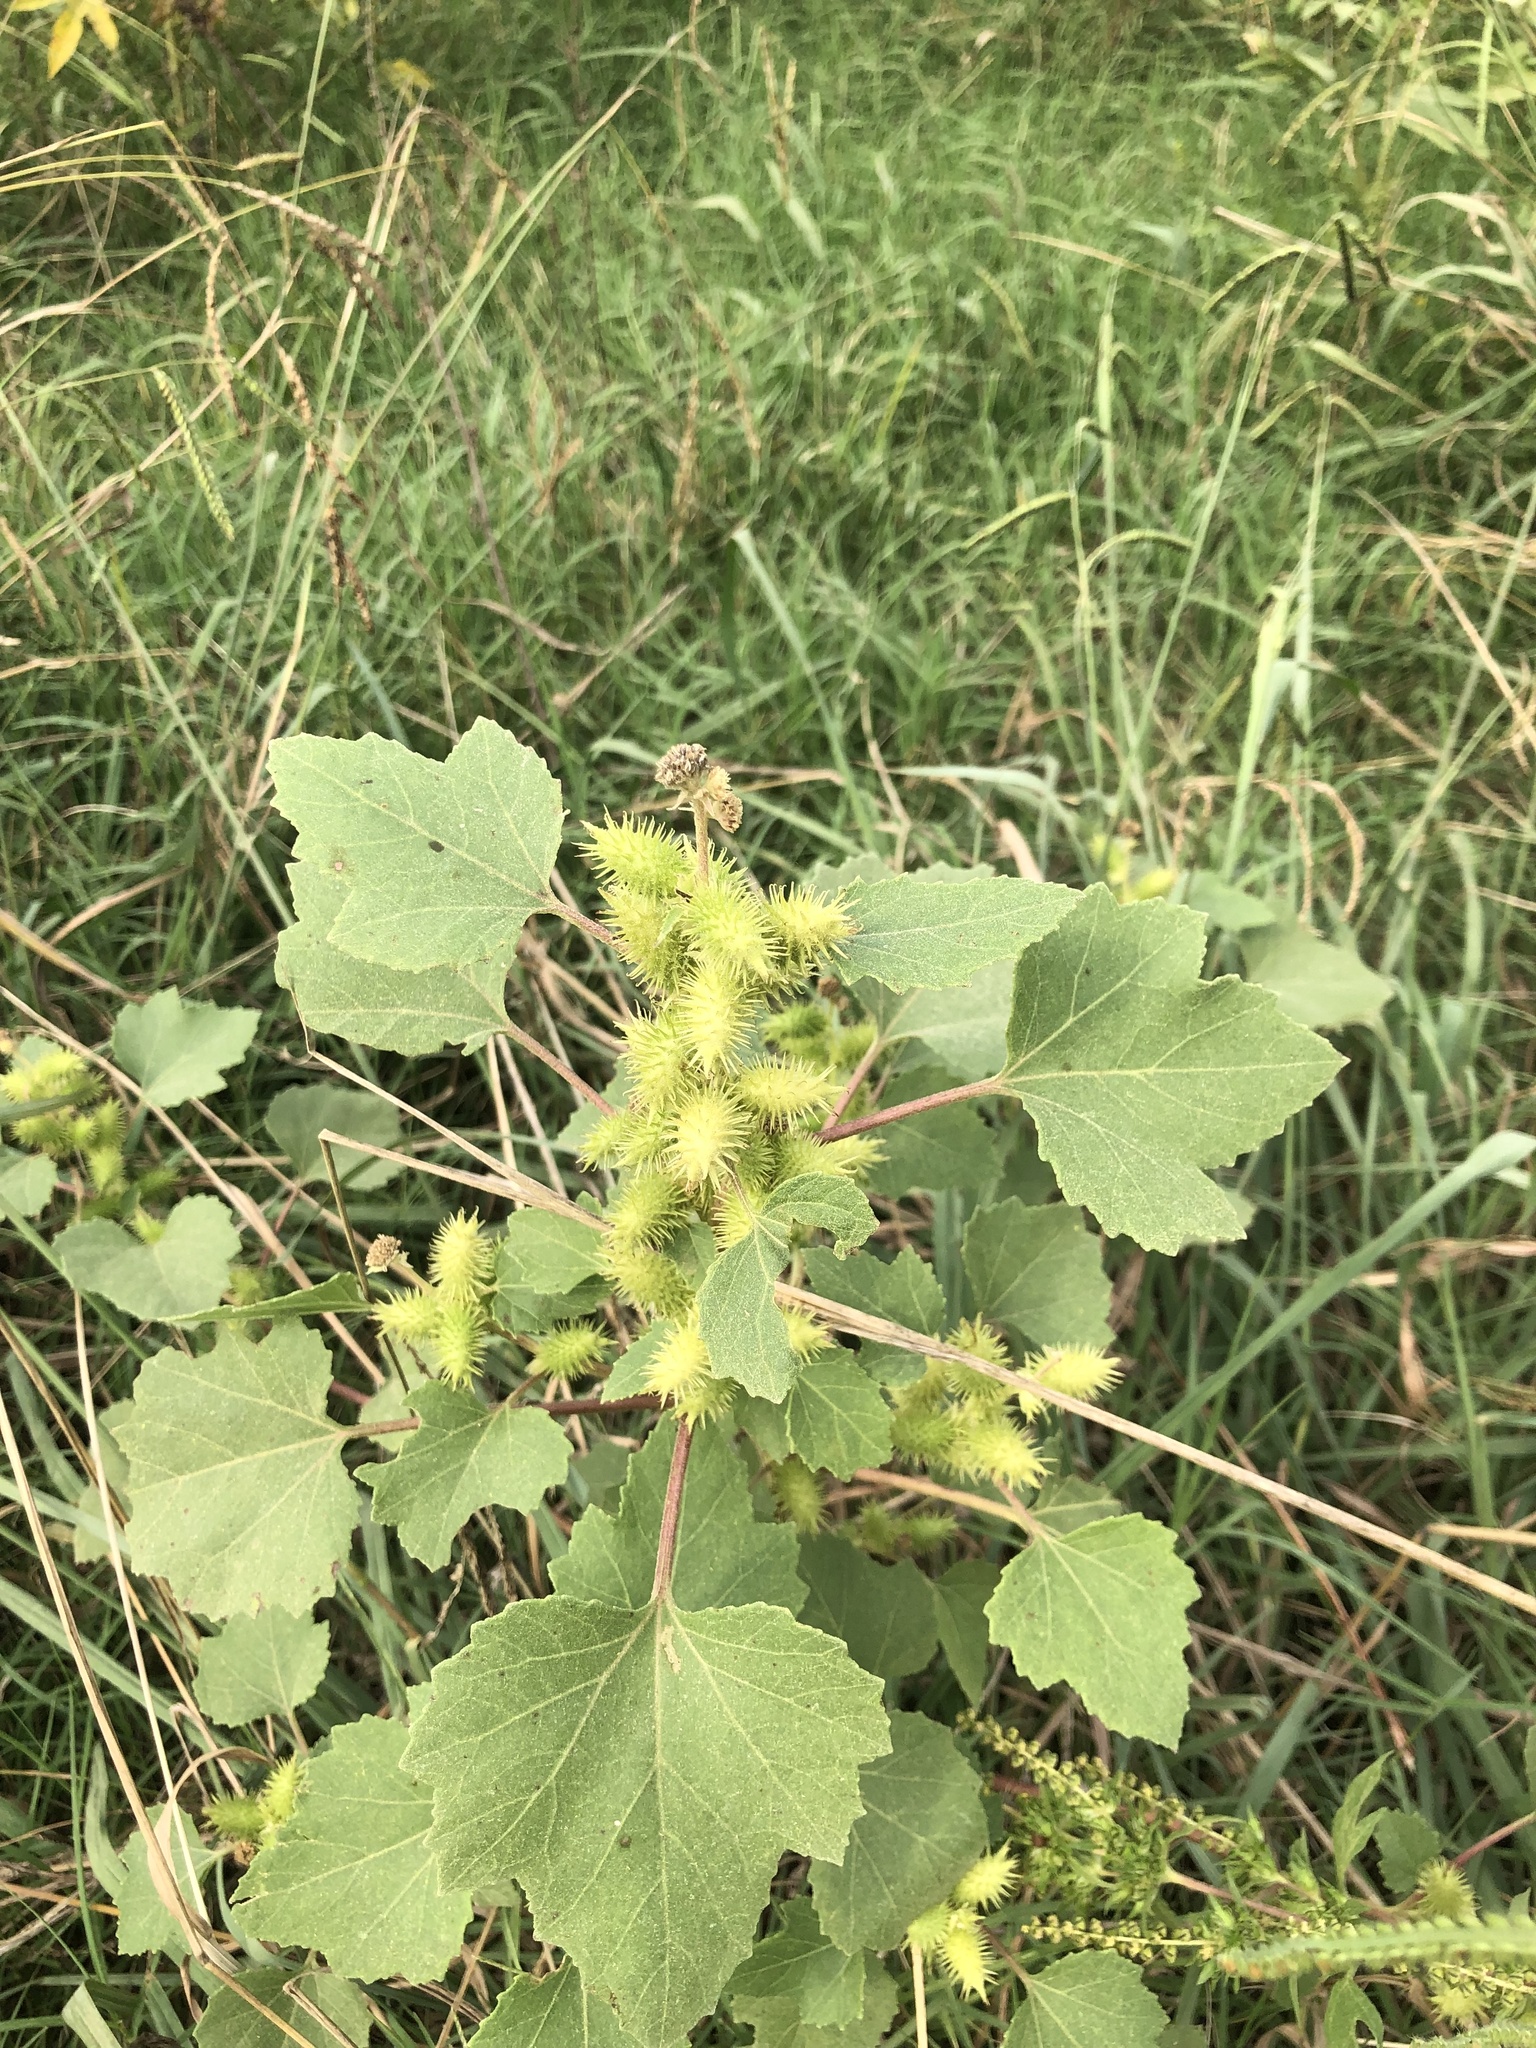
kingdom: Plantae
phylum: Tracheophyta
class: Magnoliopsida
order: Asterales
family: Asteraceae
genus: Xanthium
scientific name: Xanthium strumarium
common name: Rough cocklebur
